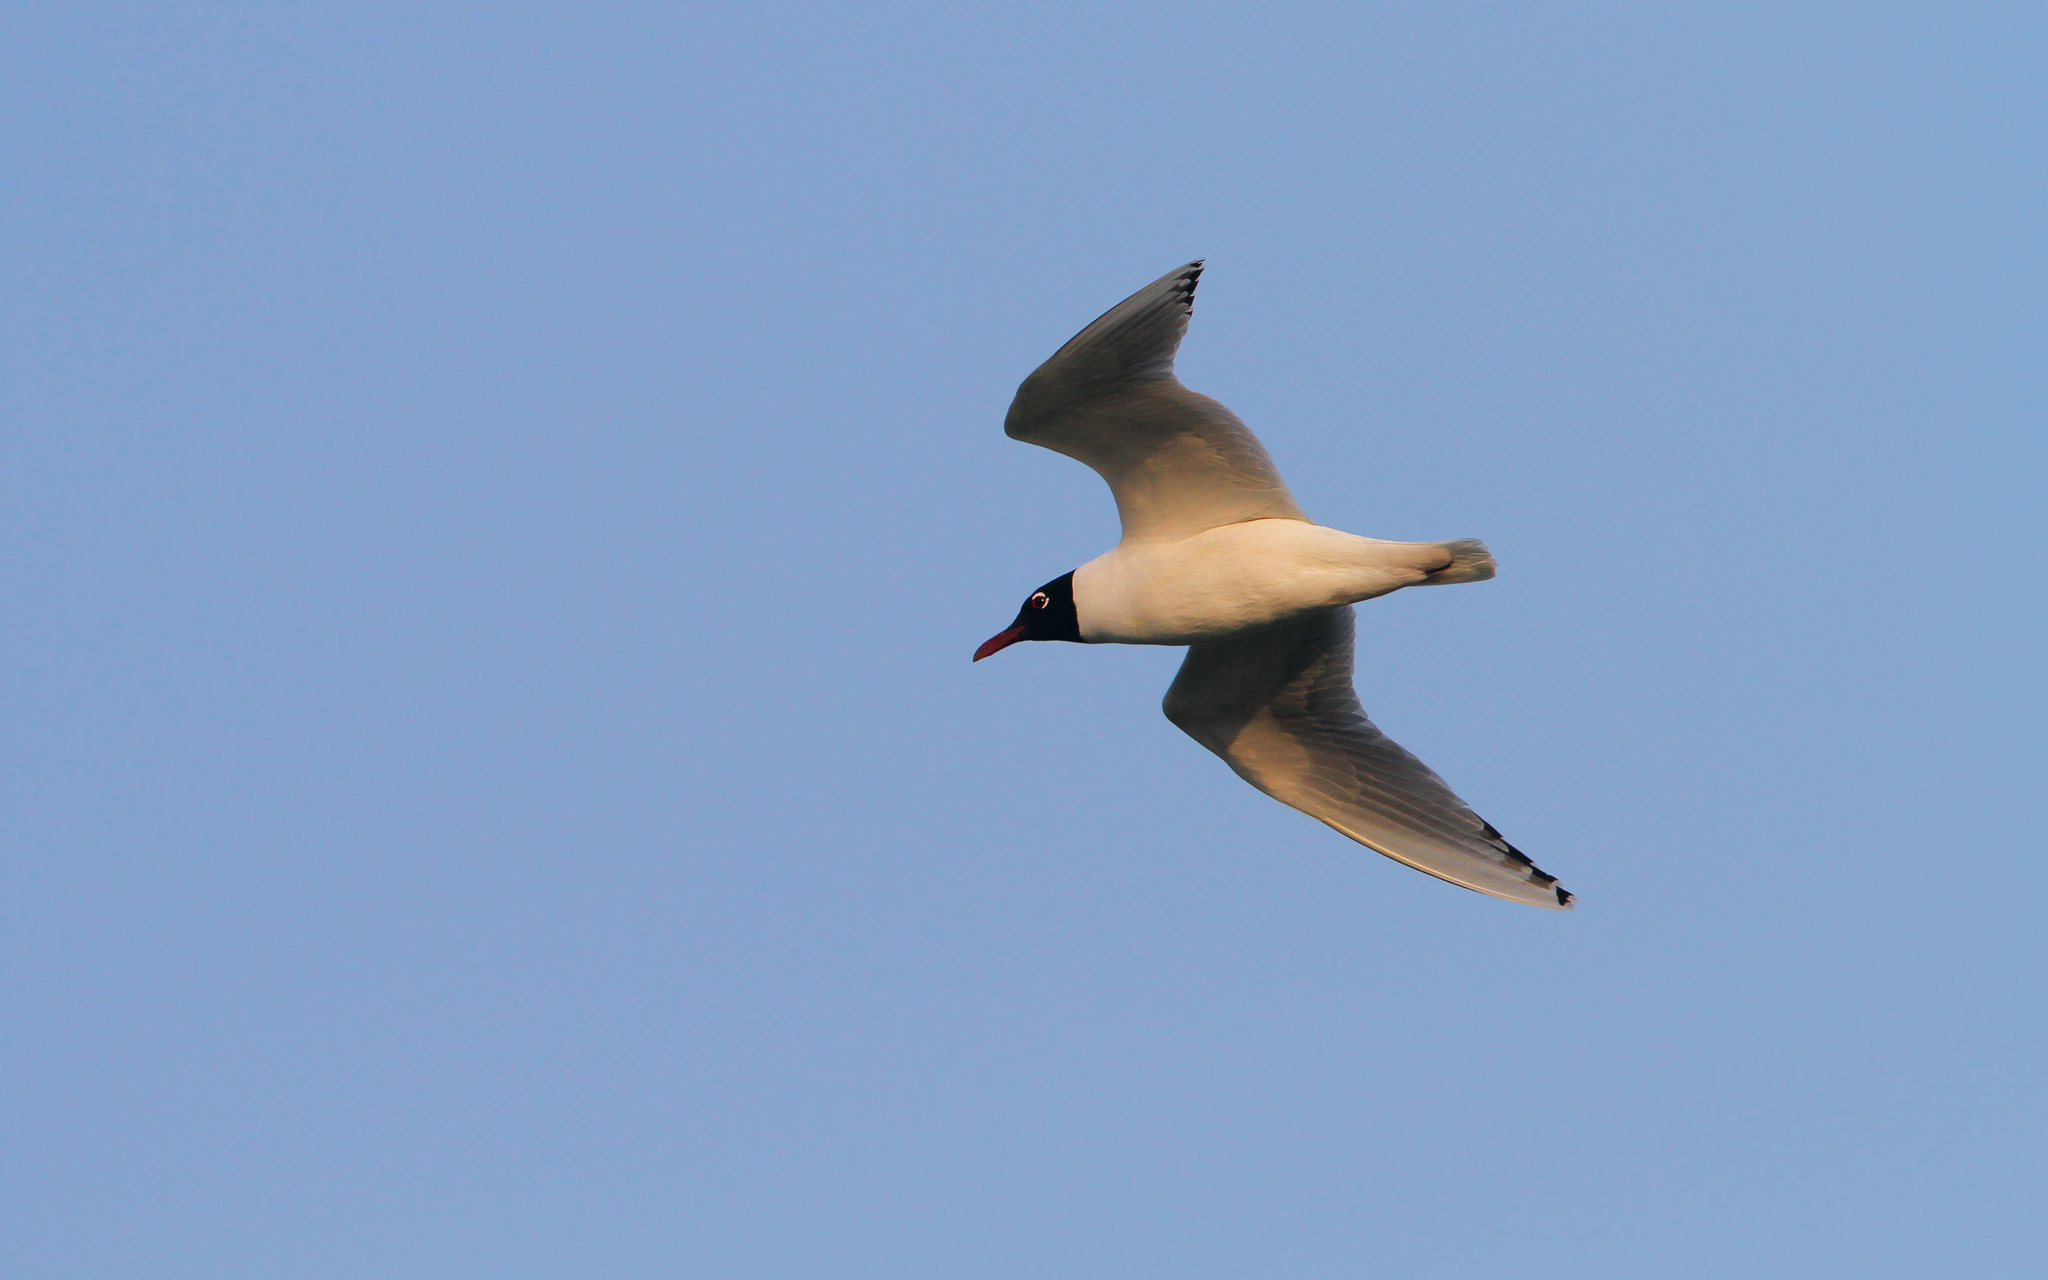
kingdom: Animalia
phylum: Chordata
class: Aves
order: Charadriiformes
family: Laridae
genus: Ichthyaetus
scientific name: Ichthyaetus melanocephalus
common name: Mediterranean gull
